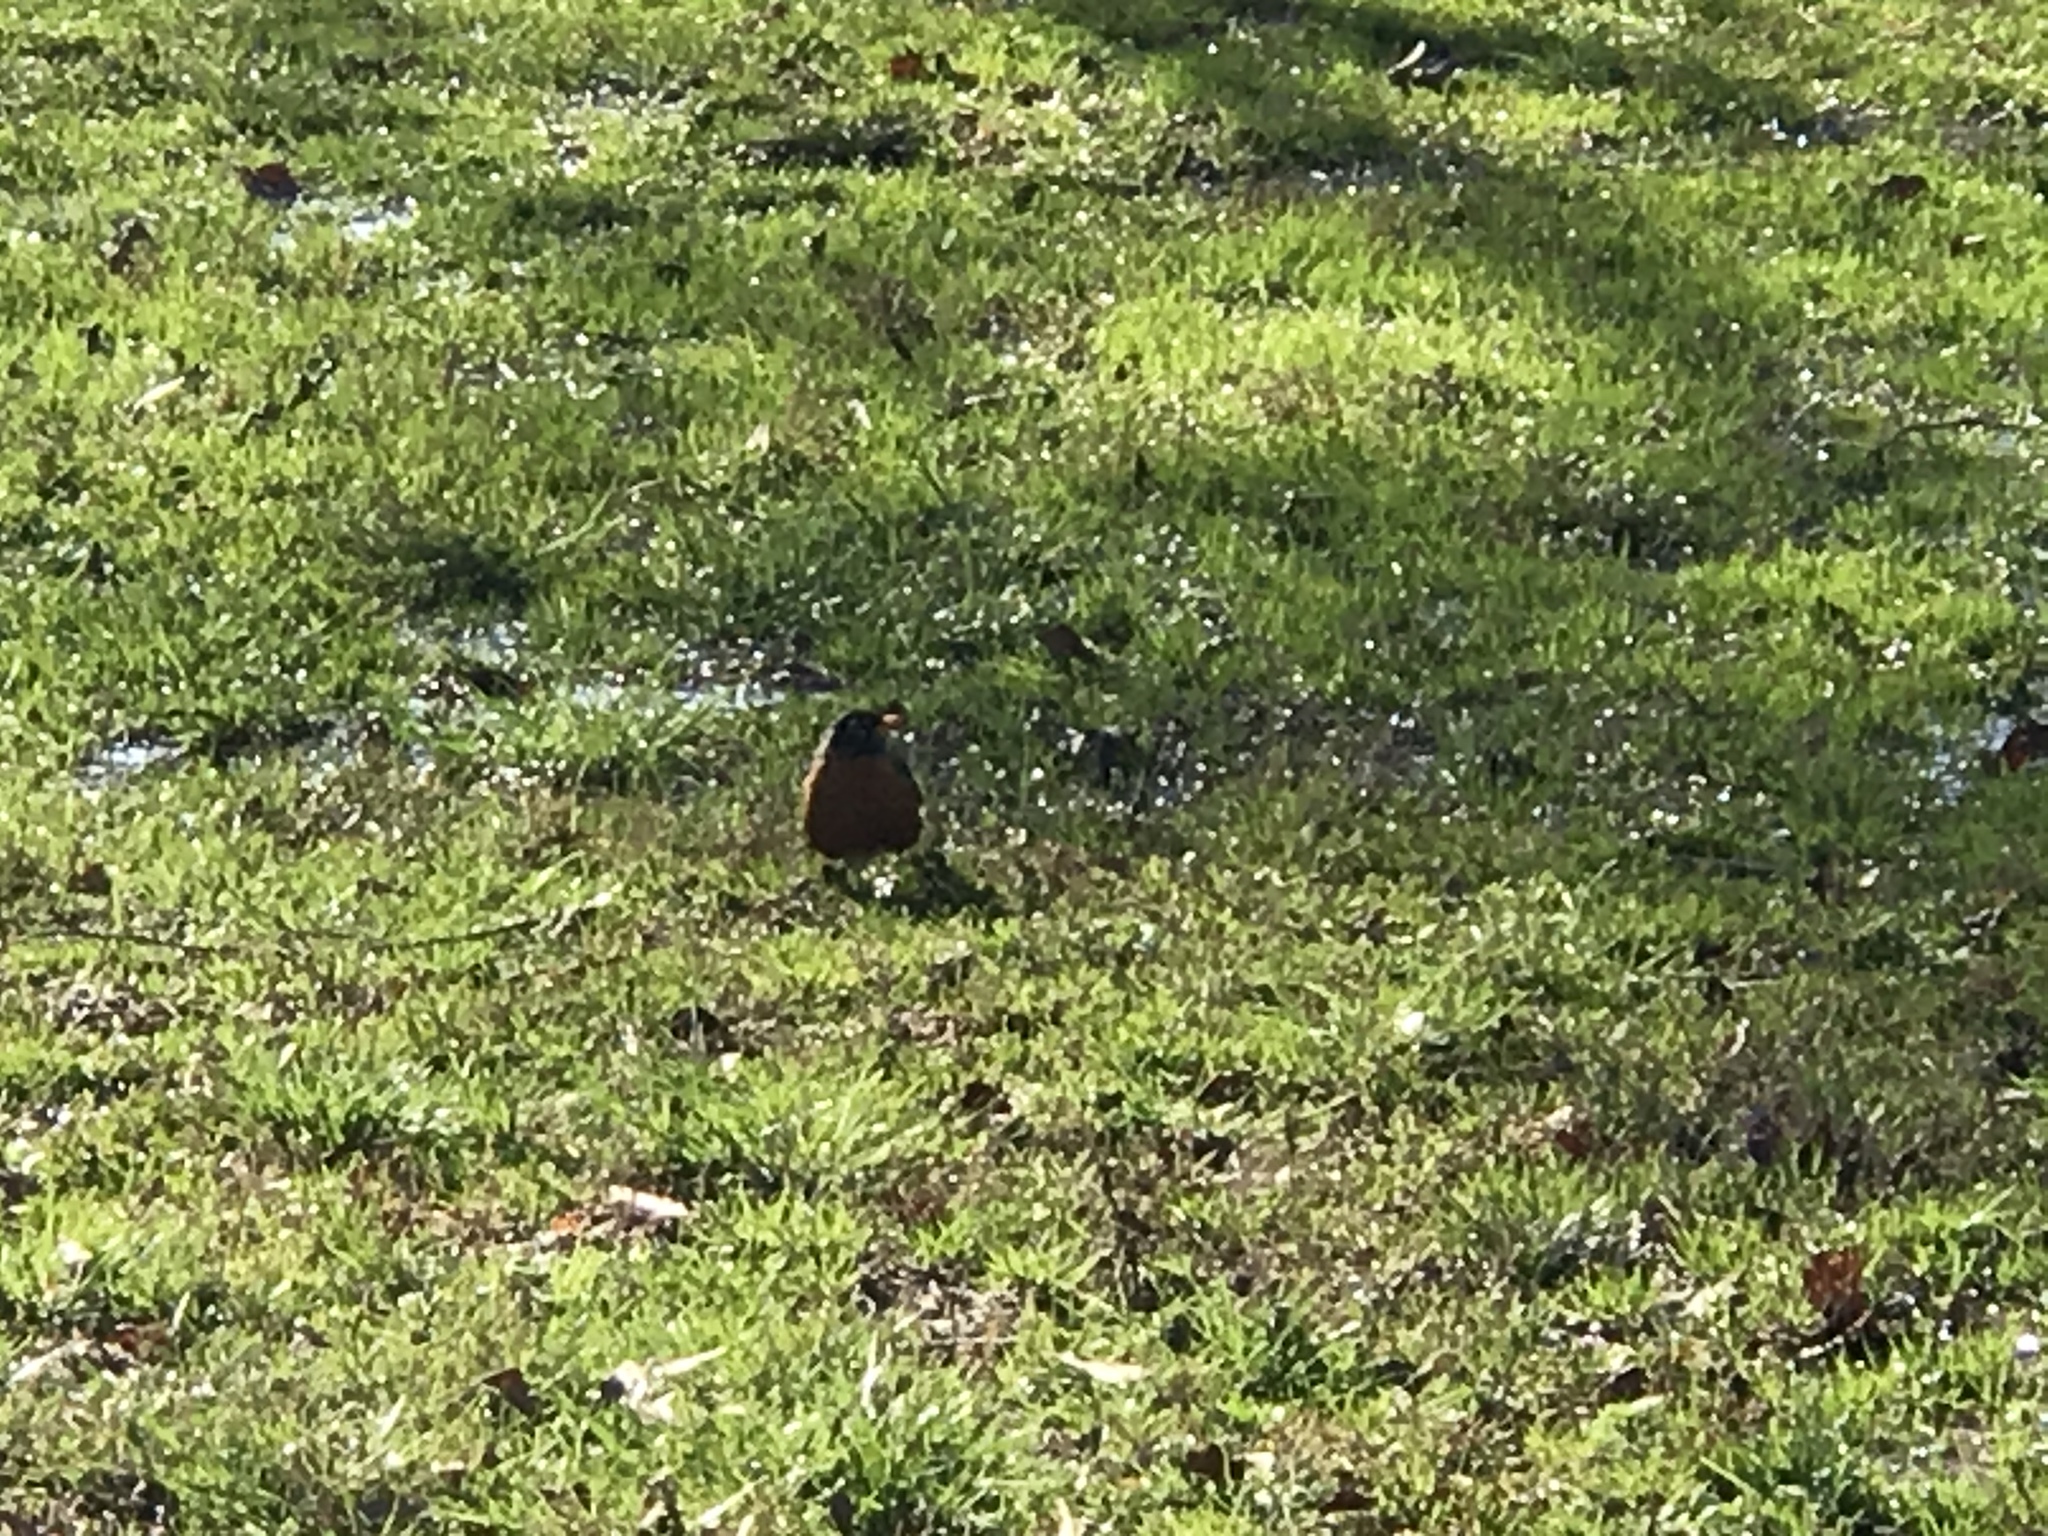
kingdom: Animalia
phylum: Chordata
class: Aves
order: Passeriformes
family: Turdidae
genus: Turdus
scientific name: Turdus migratorius
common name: American robin
